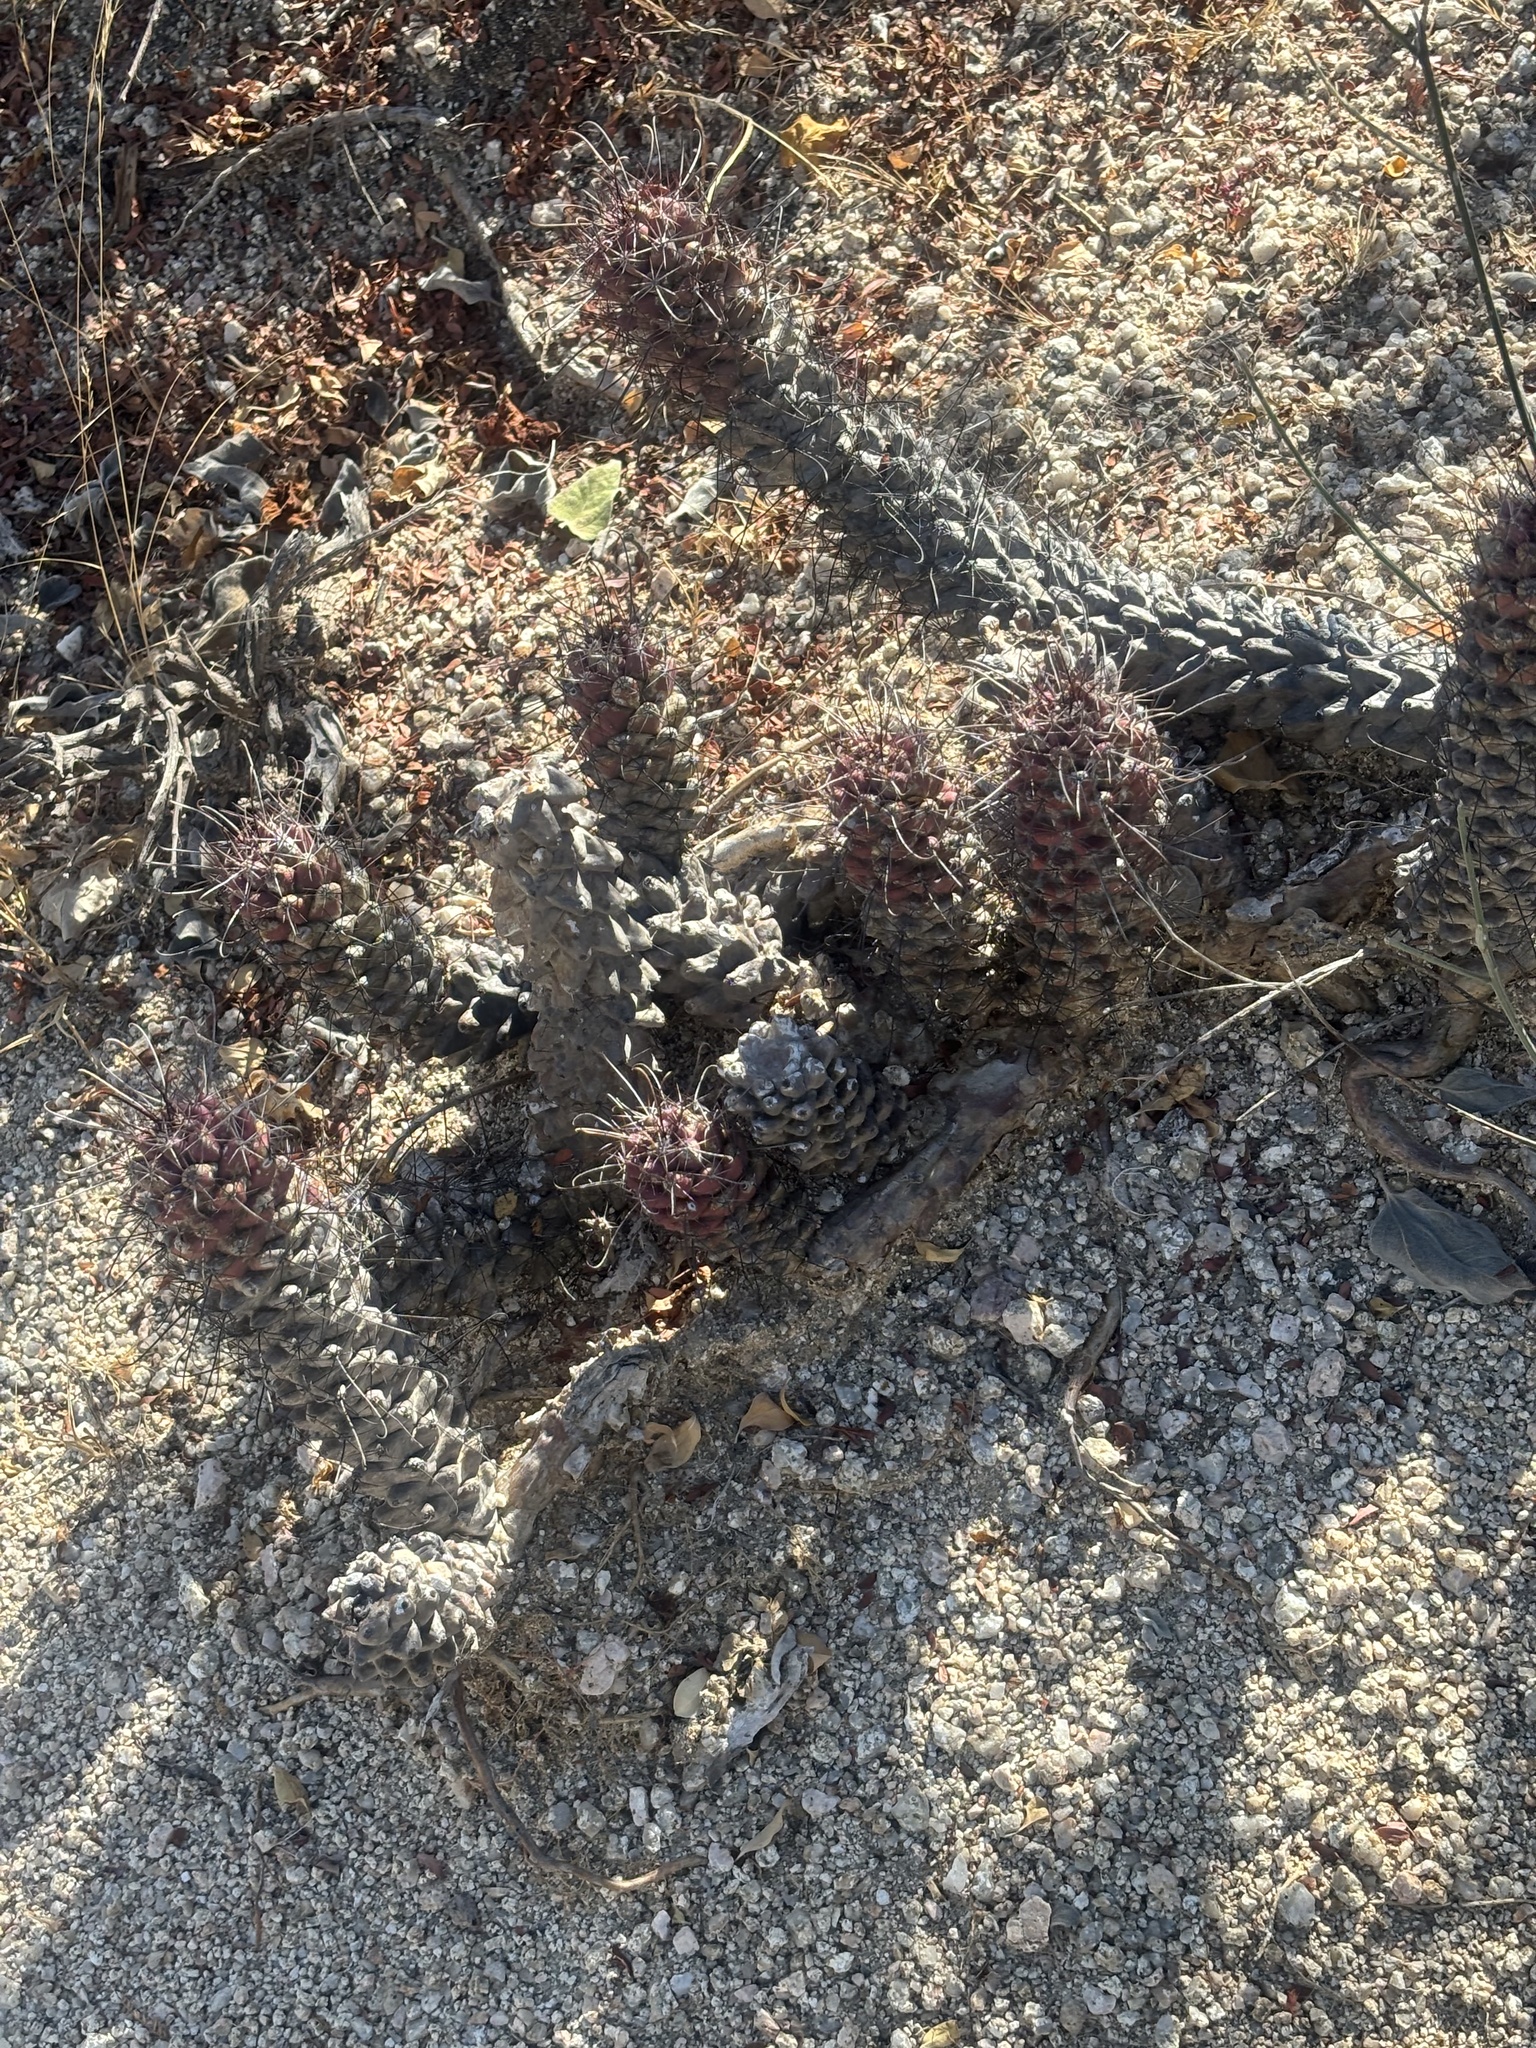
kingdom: Plantae
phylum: Tracheophyta
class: Magnoliopsida
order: Caryophyllales
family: Cactaceae
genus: Cochemiea
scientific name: Cochemiea poselgeri
